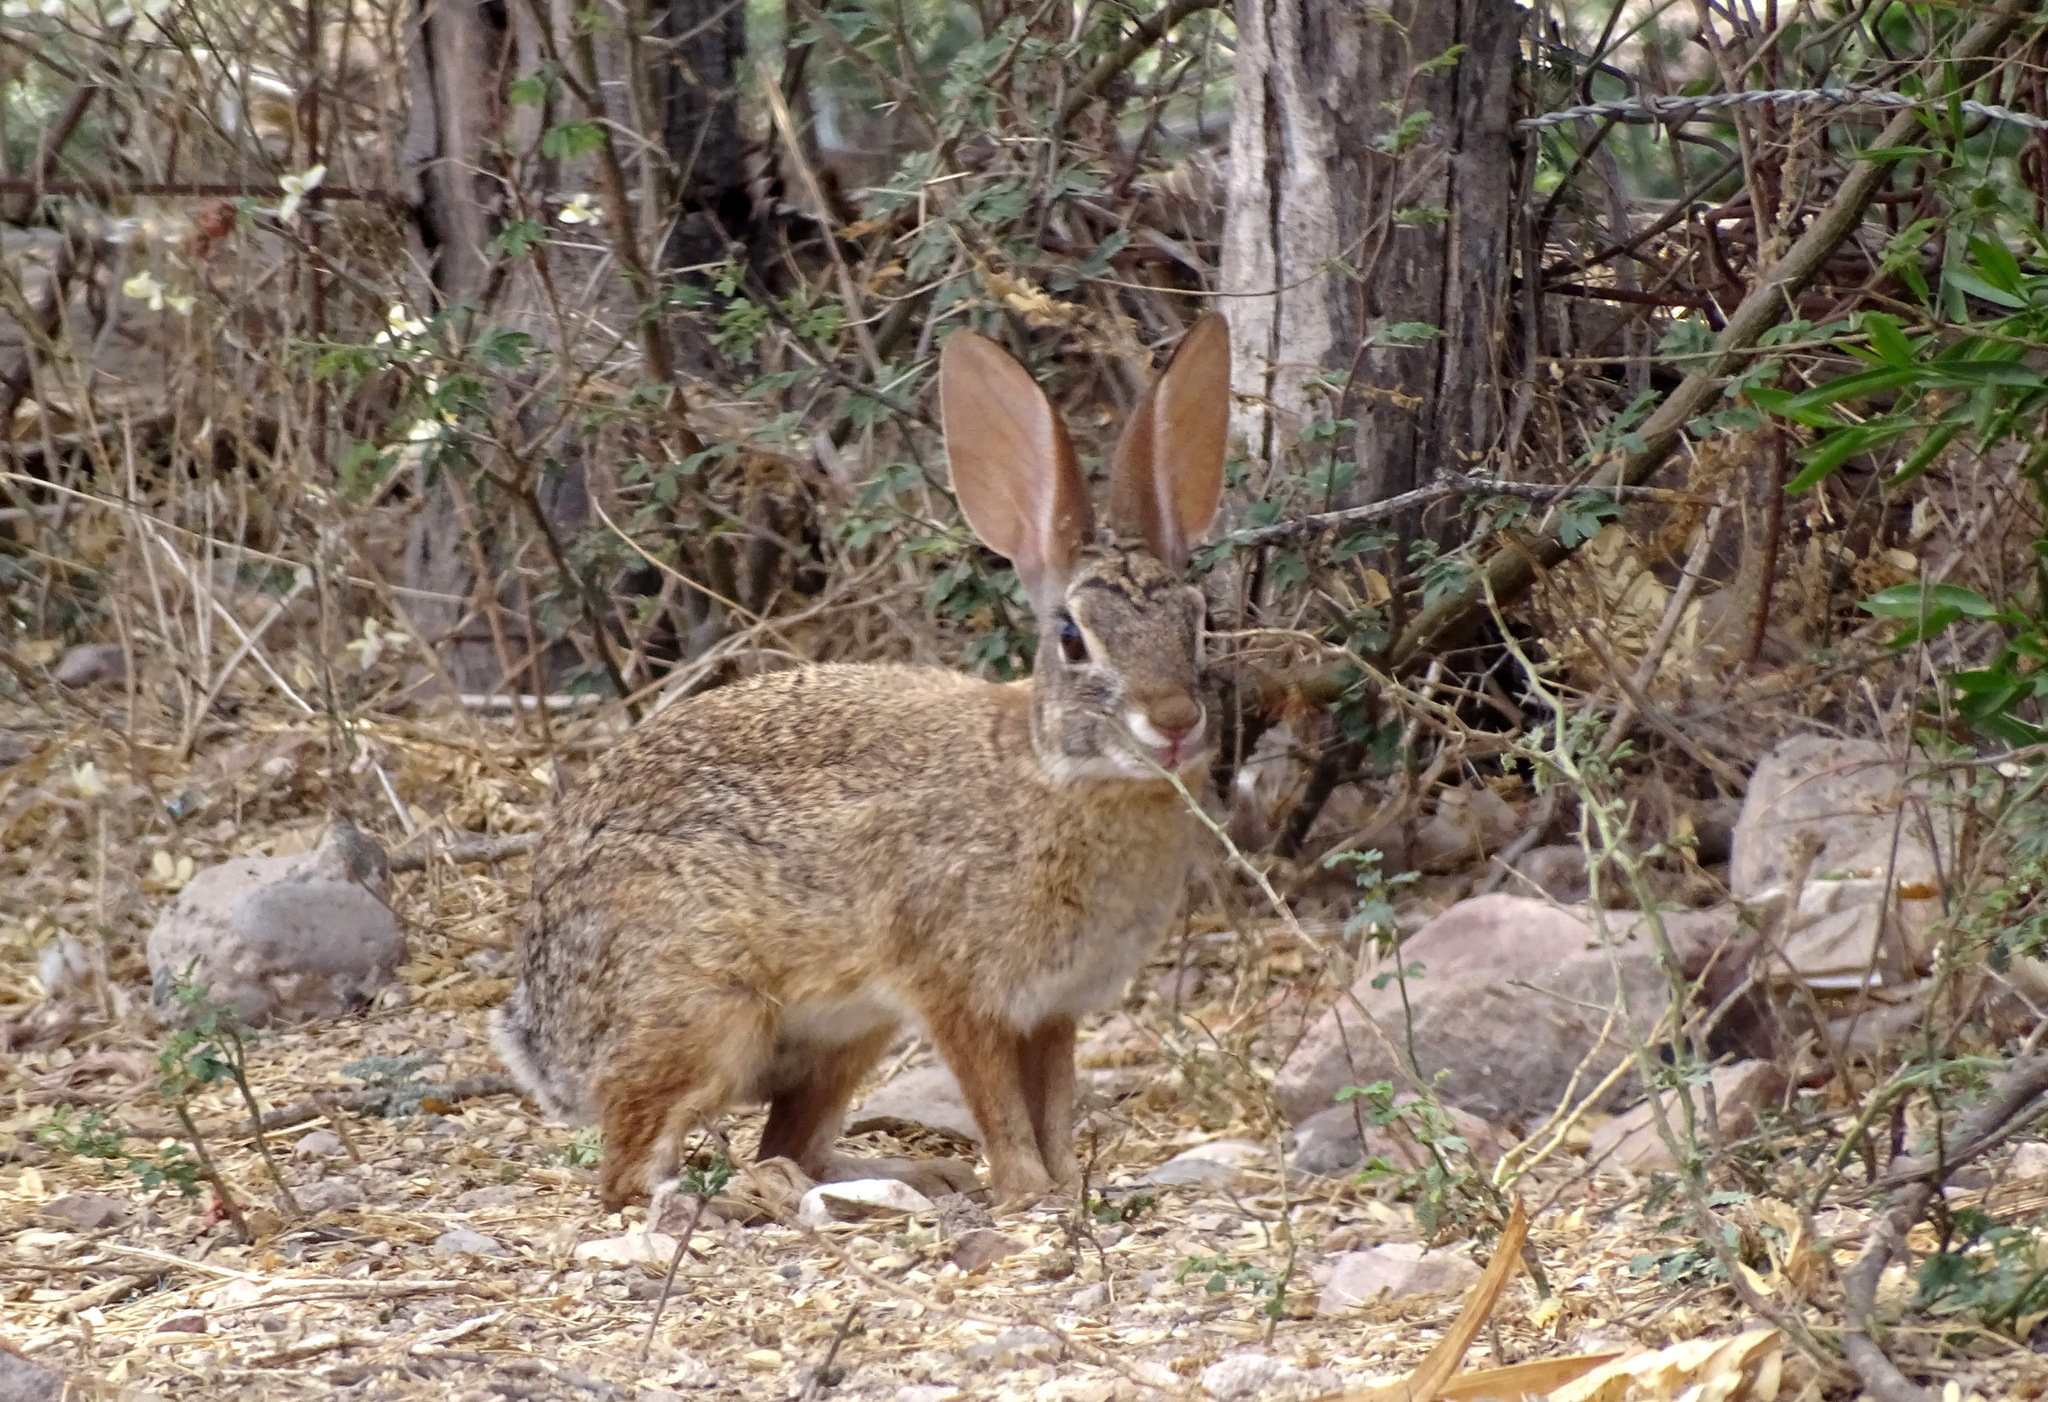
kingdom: Animalia
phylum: Chordata
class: Mammalia
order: Lagomorpha
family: Leporidae
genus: Sylvilagus
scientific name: Sylvilagus cunicularius
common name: Mexican cottontail
